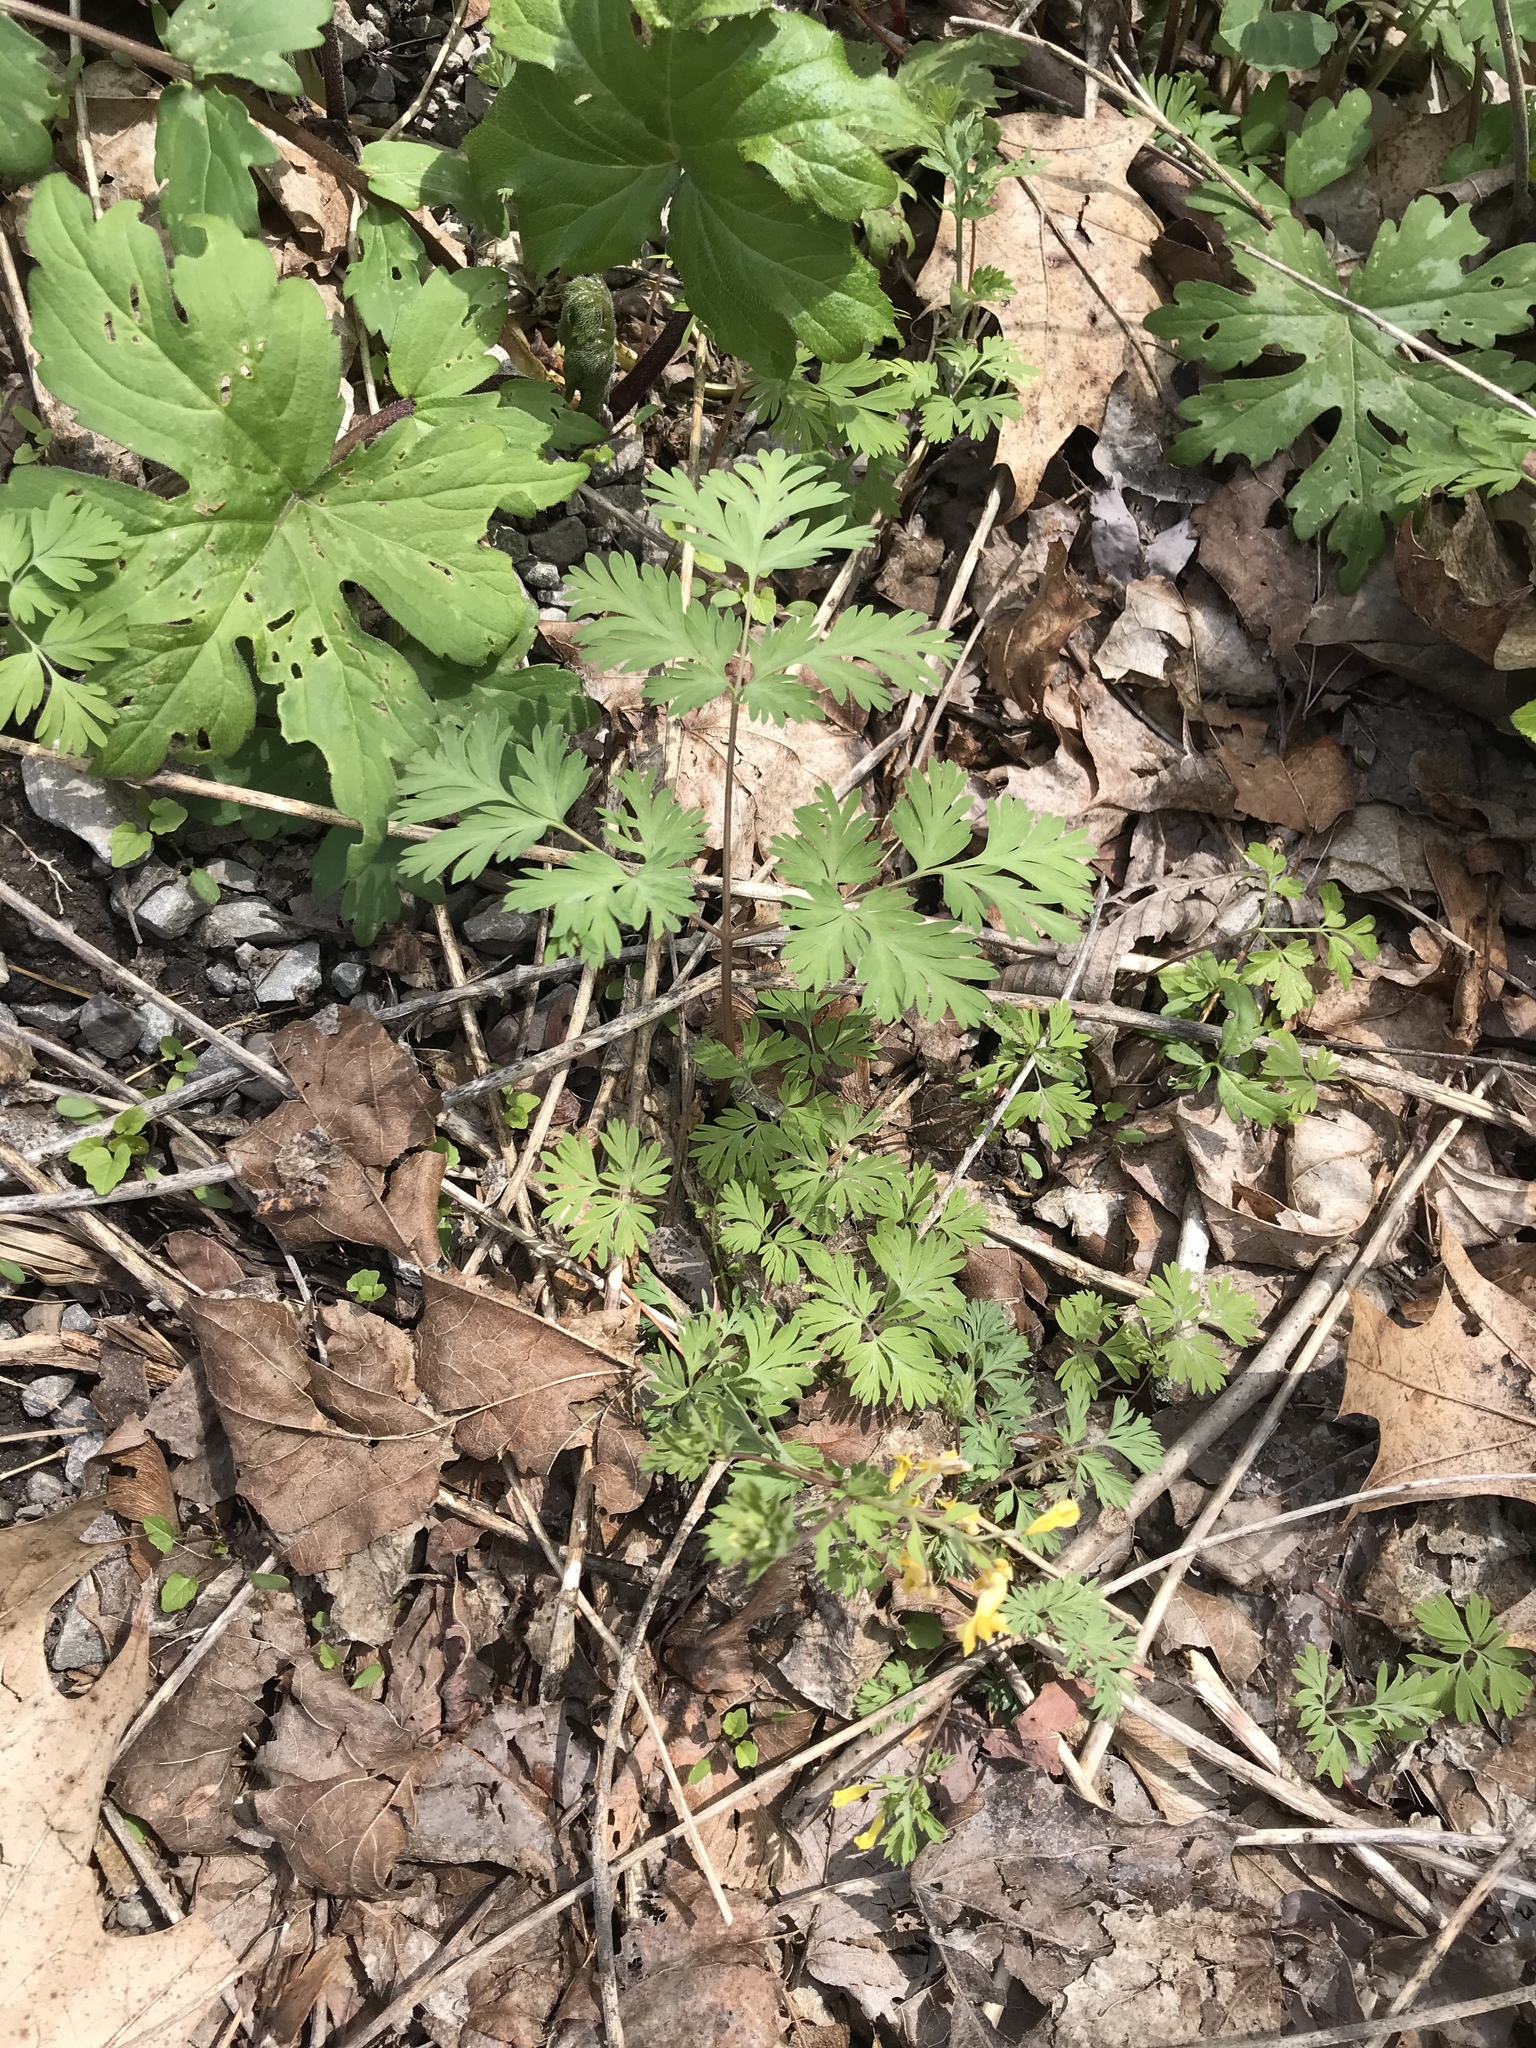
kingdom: Plantae
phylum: Tracheophyta
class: Magnoliopsida
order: Ranunculales
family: Papaveraceae
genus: Corydalis
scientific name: Corydalis flavula
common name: Yellow corydalis
